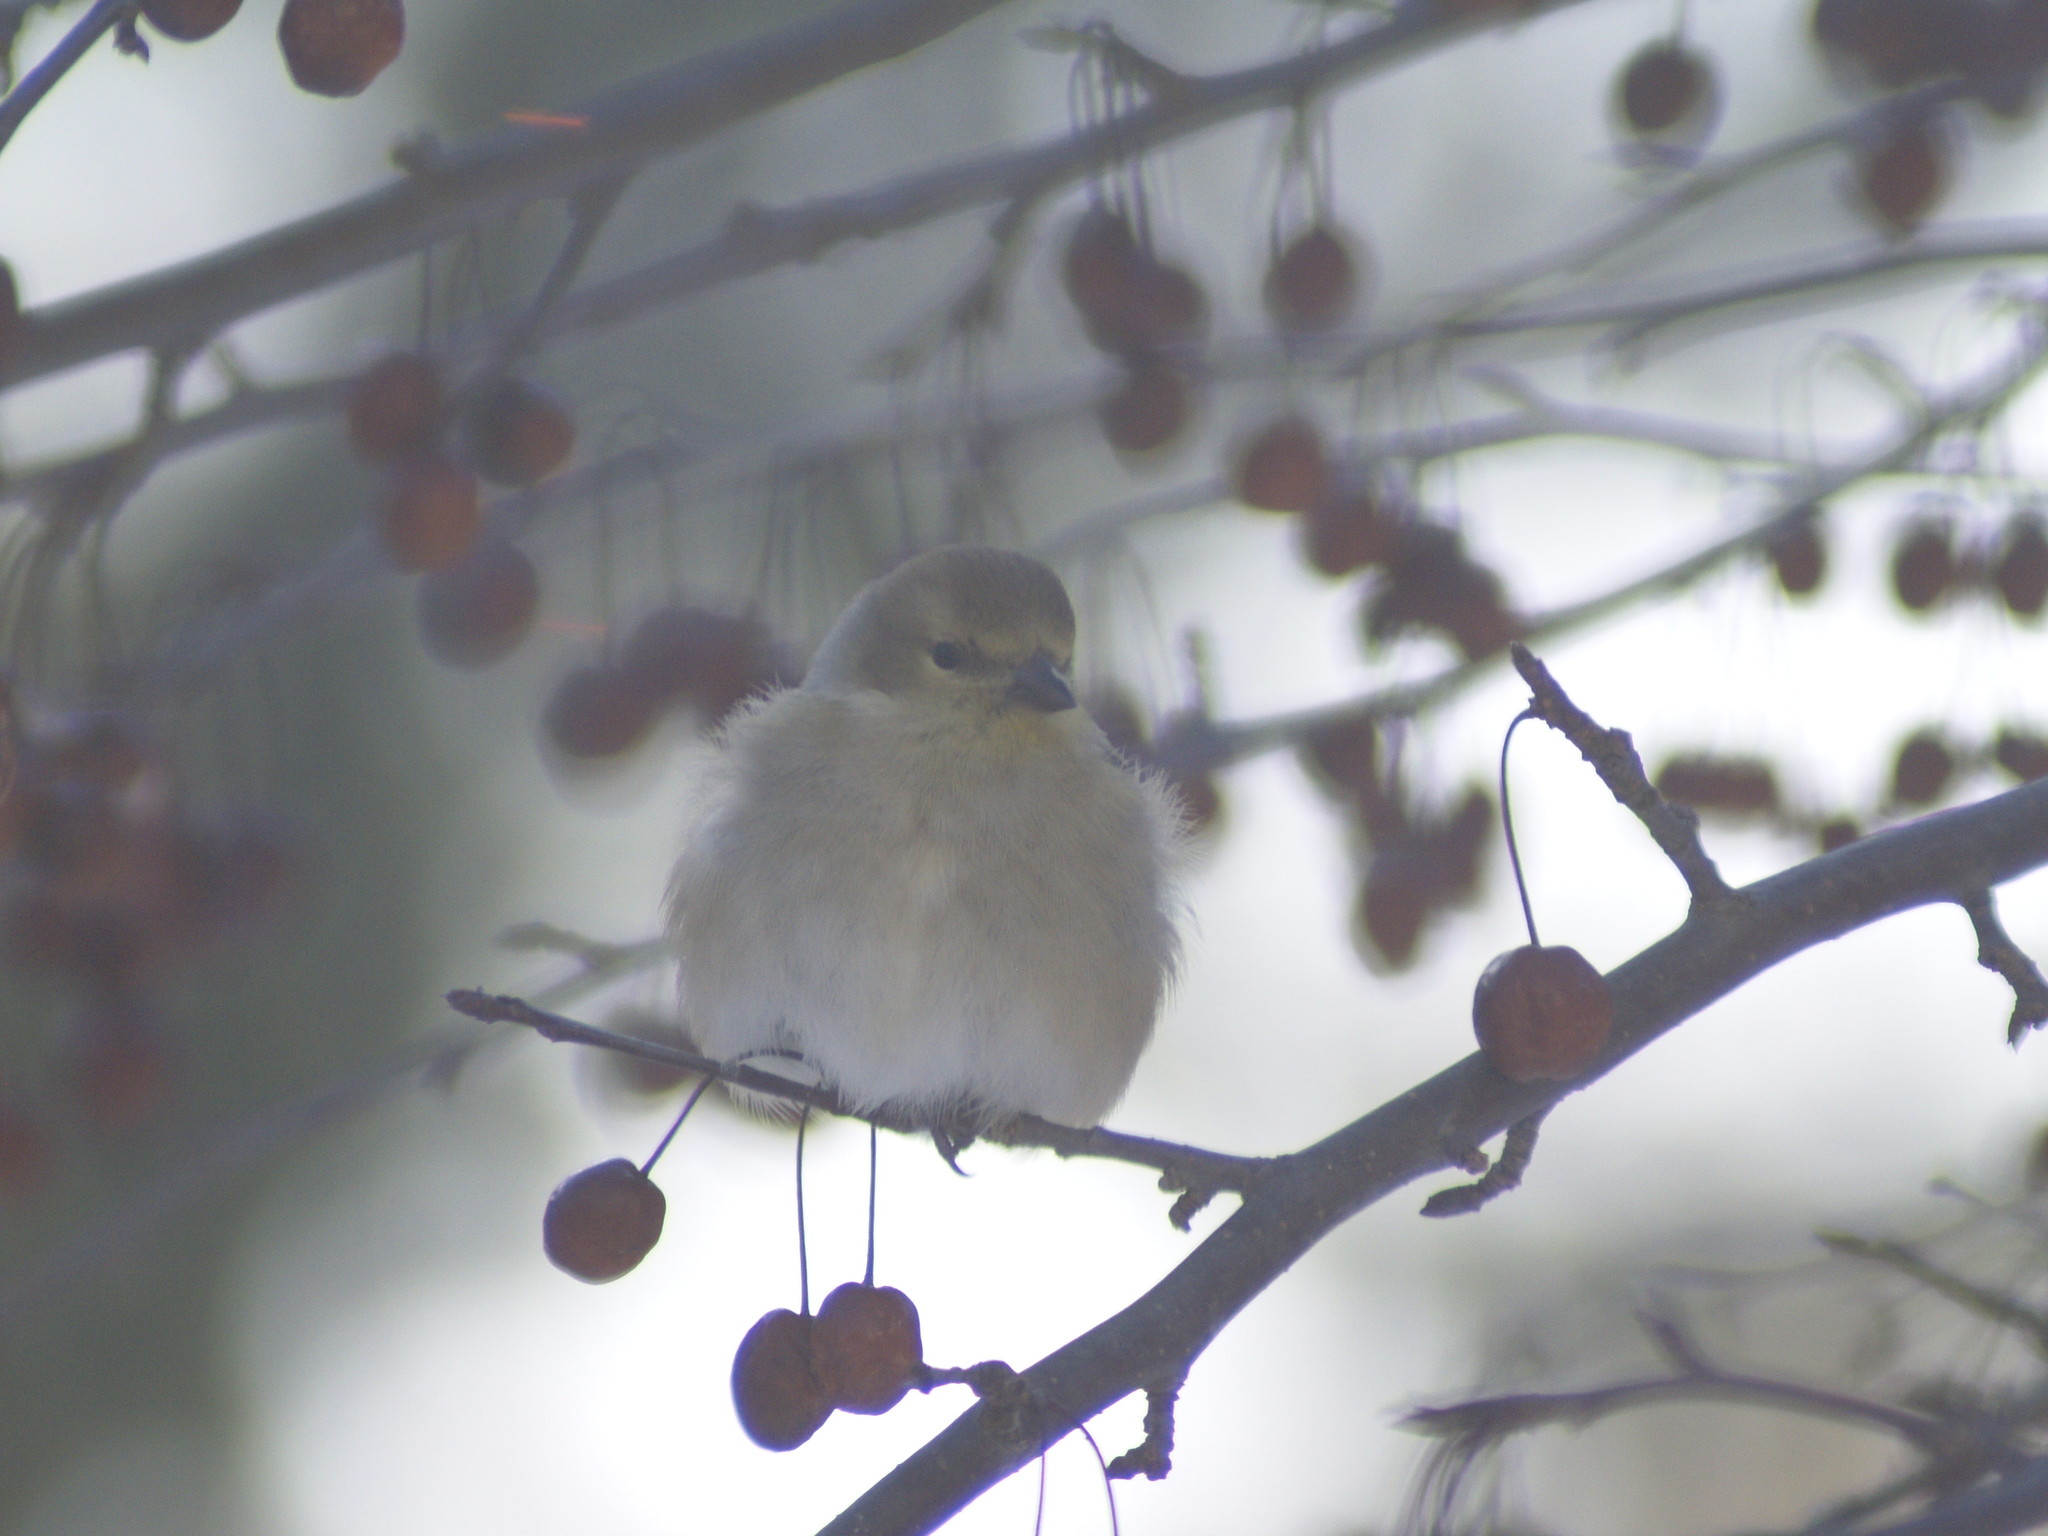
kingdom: Animalia
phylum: Chordata
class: Aves
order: Passeriformes
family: Fringillidae
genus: Spinus
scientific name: Spinus tristis
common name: American goldfinch
